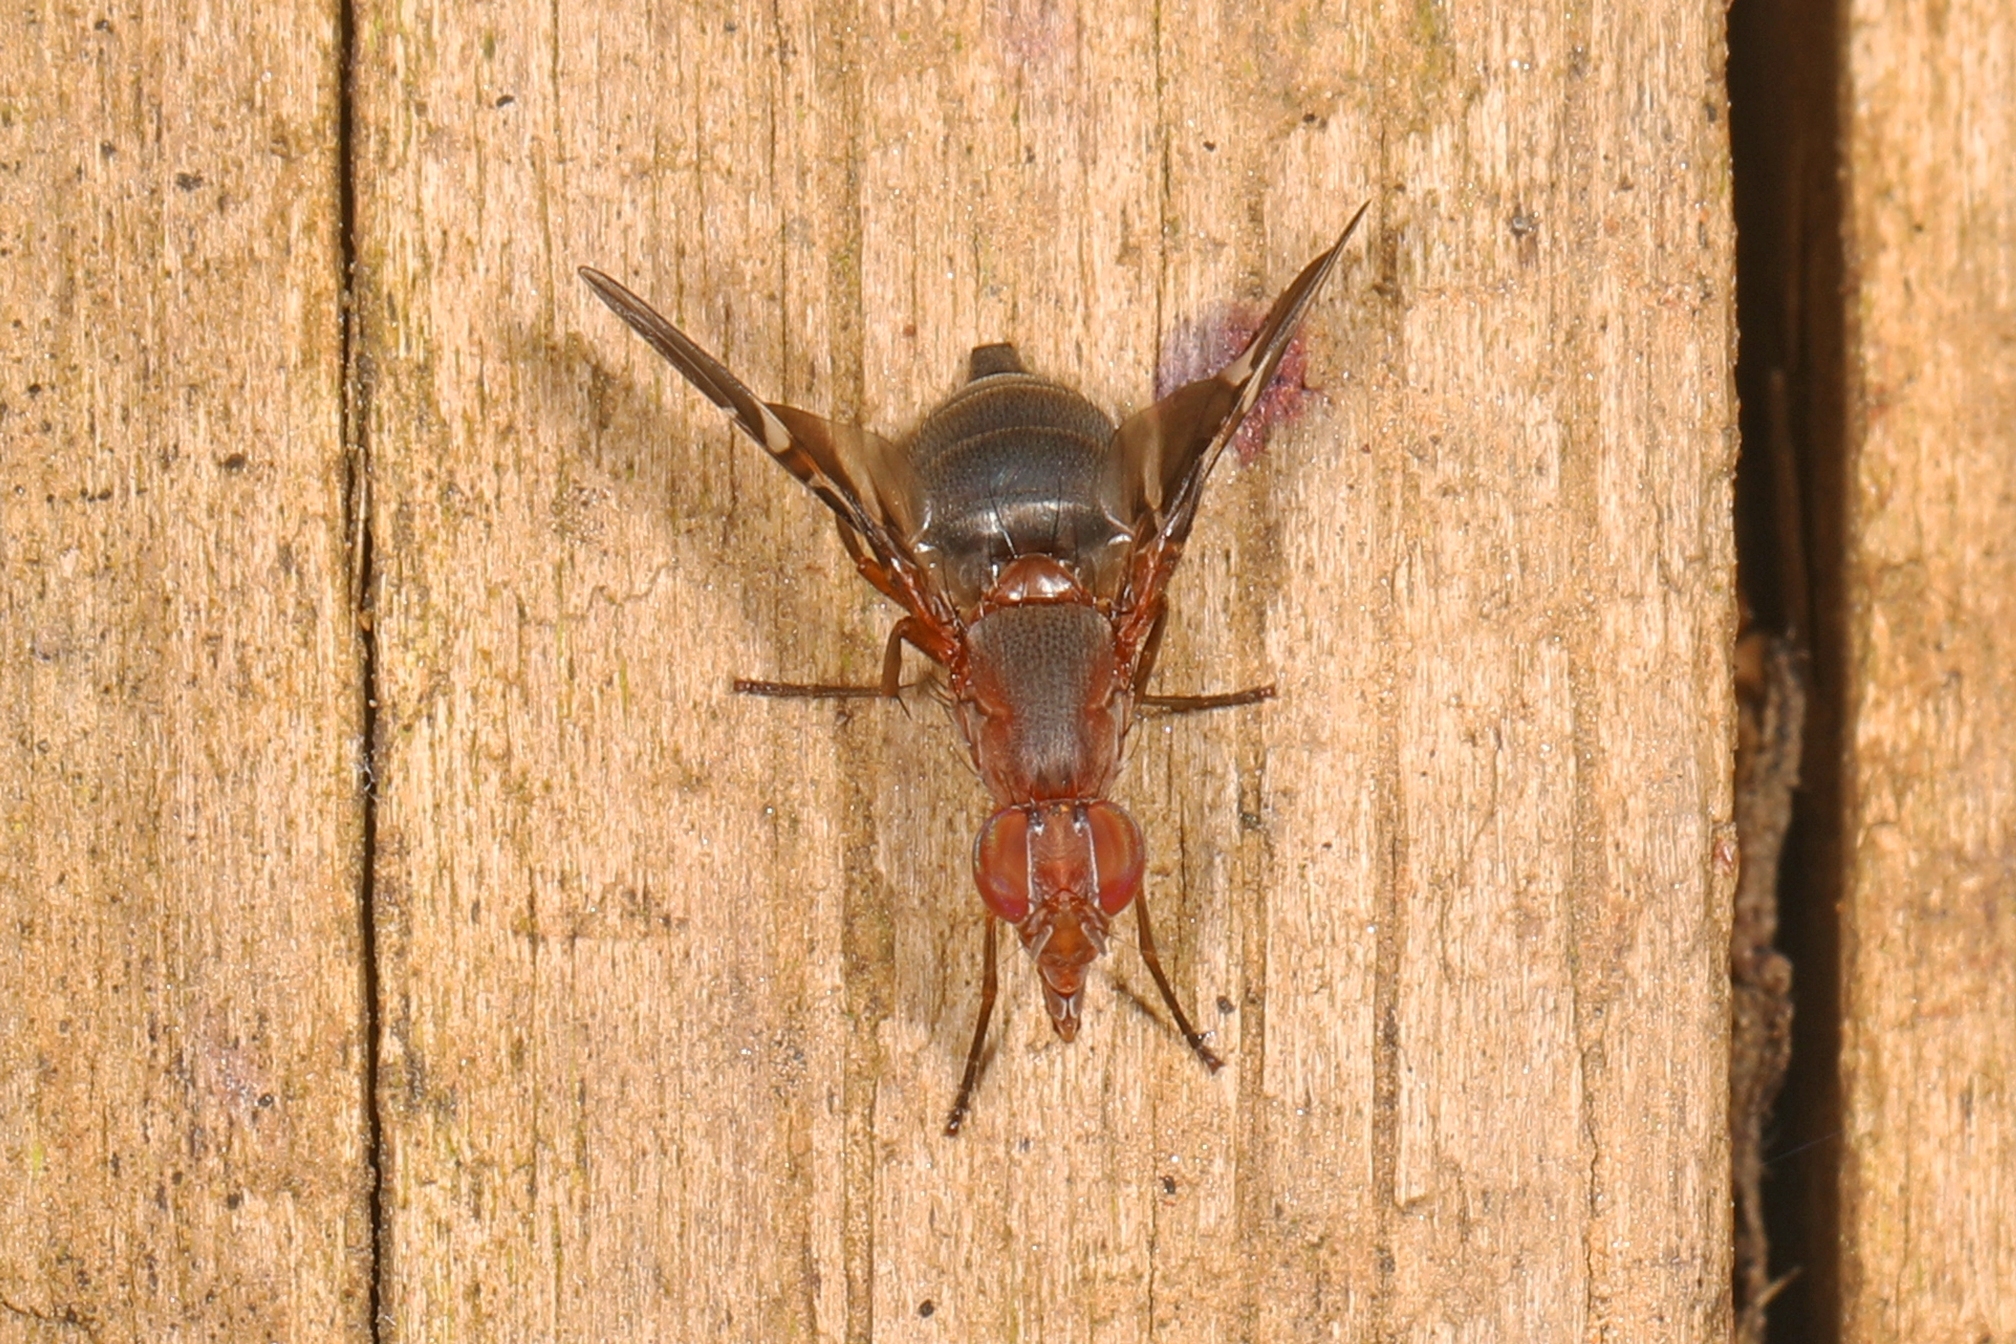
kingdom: Animalia
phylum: Arthropoda
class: Insecta
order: Diptera
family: Ulidiidae
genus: Delphinia
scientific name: Delphinia picta
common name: Common picture-winged fly
